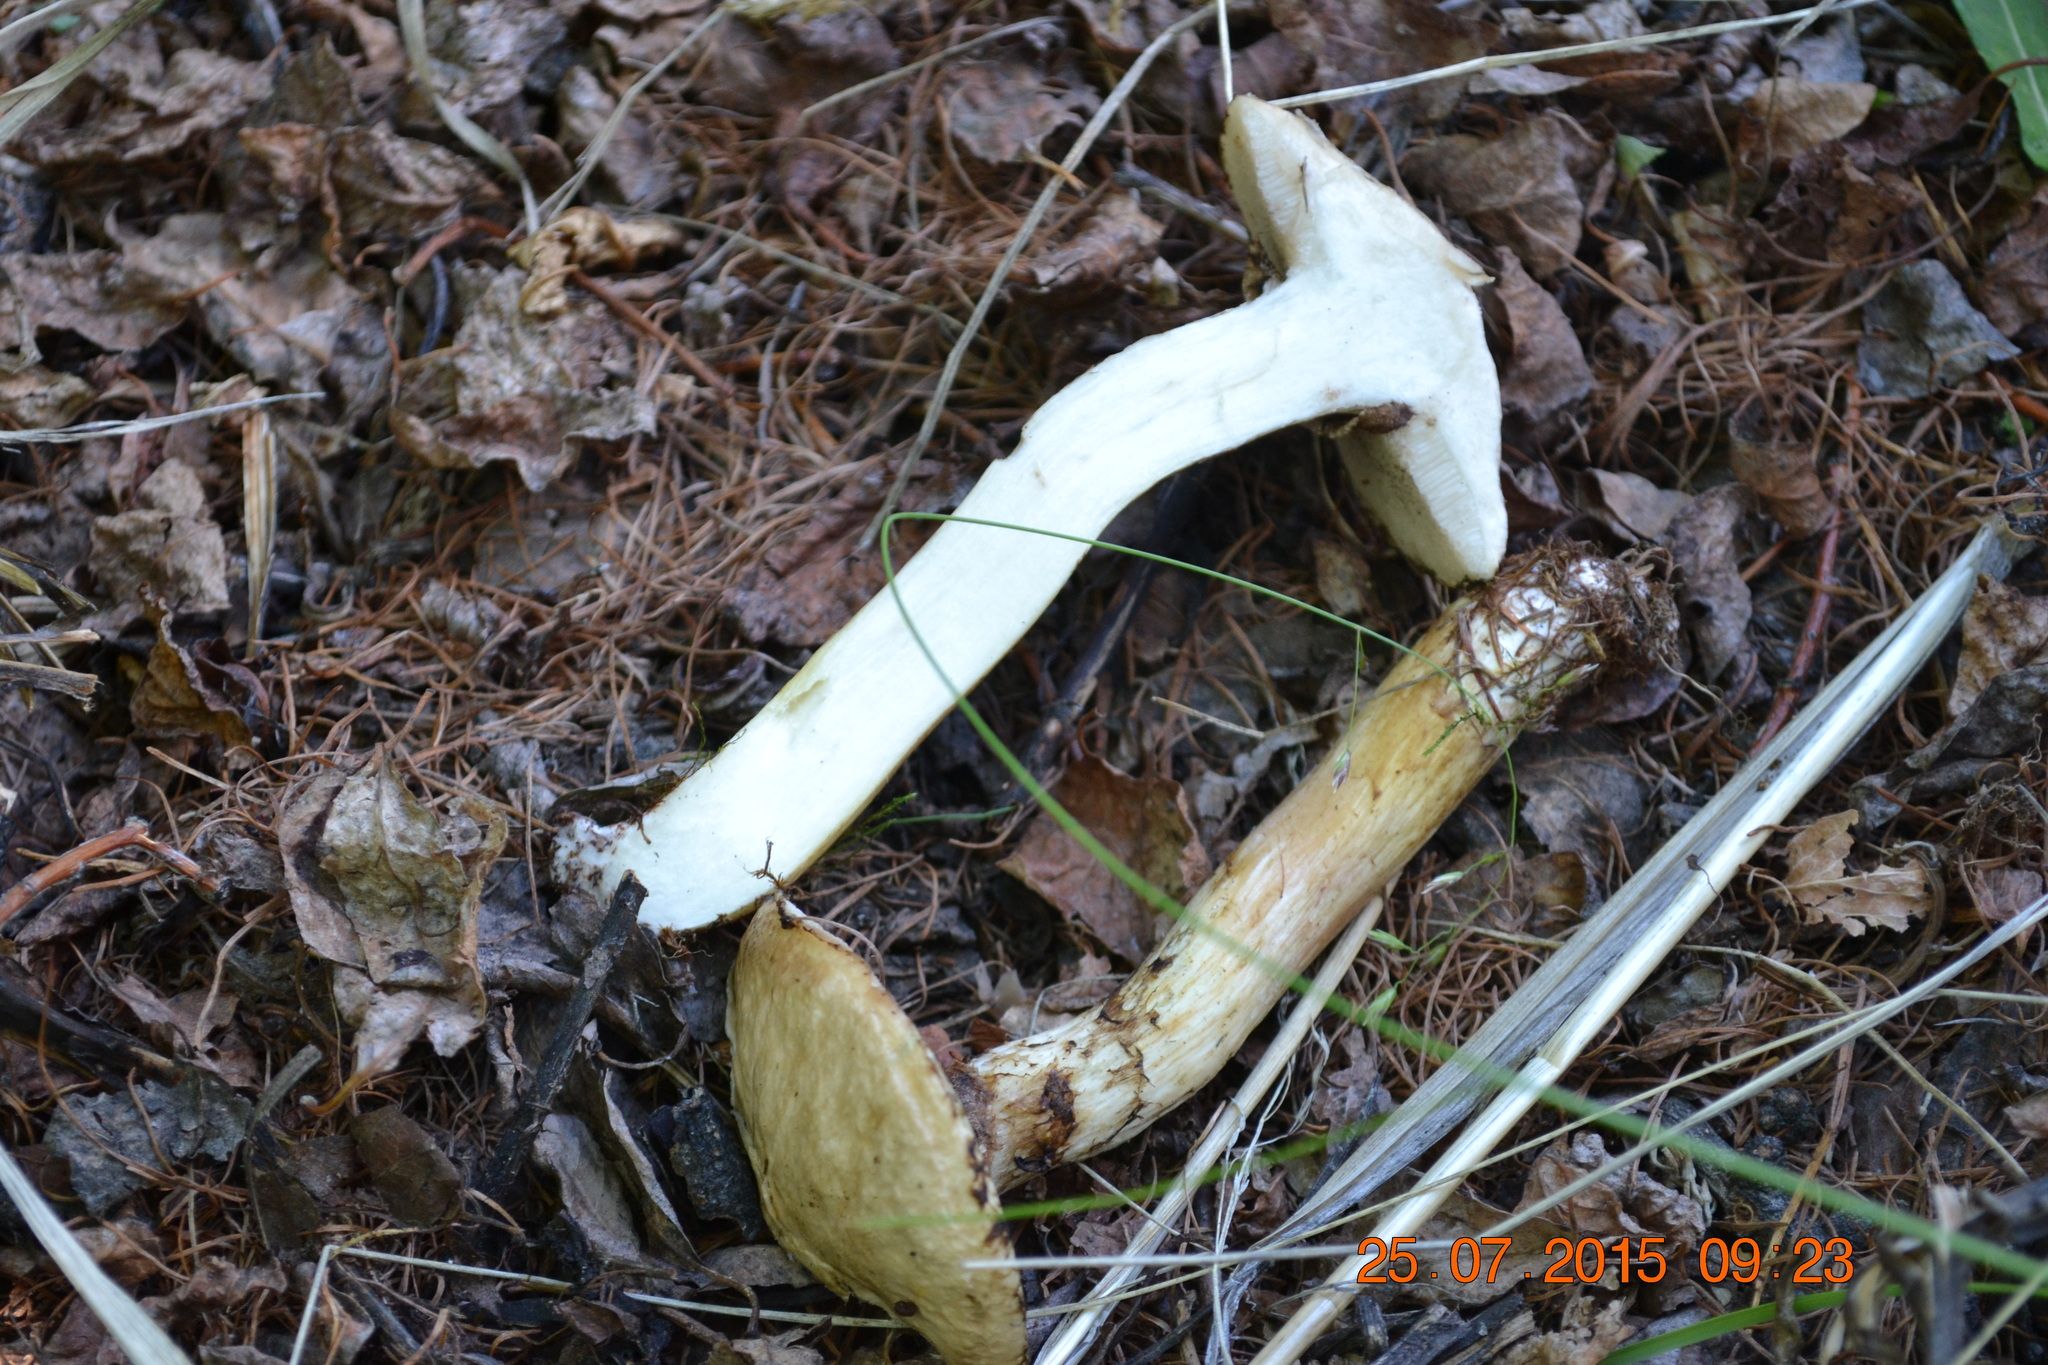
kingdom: Fungi
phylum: Basidiomycota
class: Agaricomycetes
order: Boletales
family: Suillaceae
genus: Suillus
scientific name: Suillus viscidus
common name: Sticky bolete
